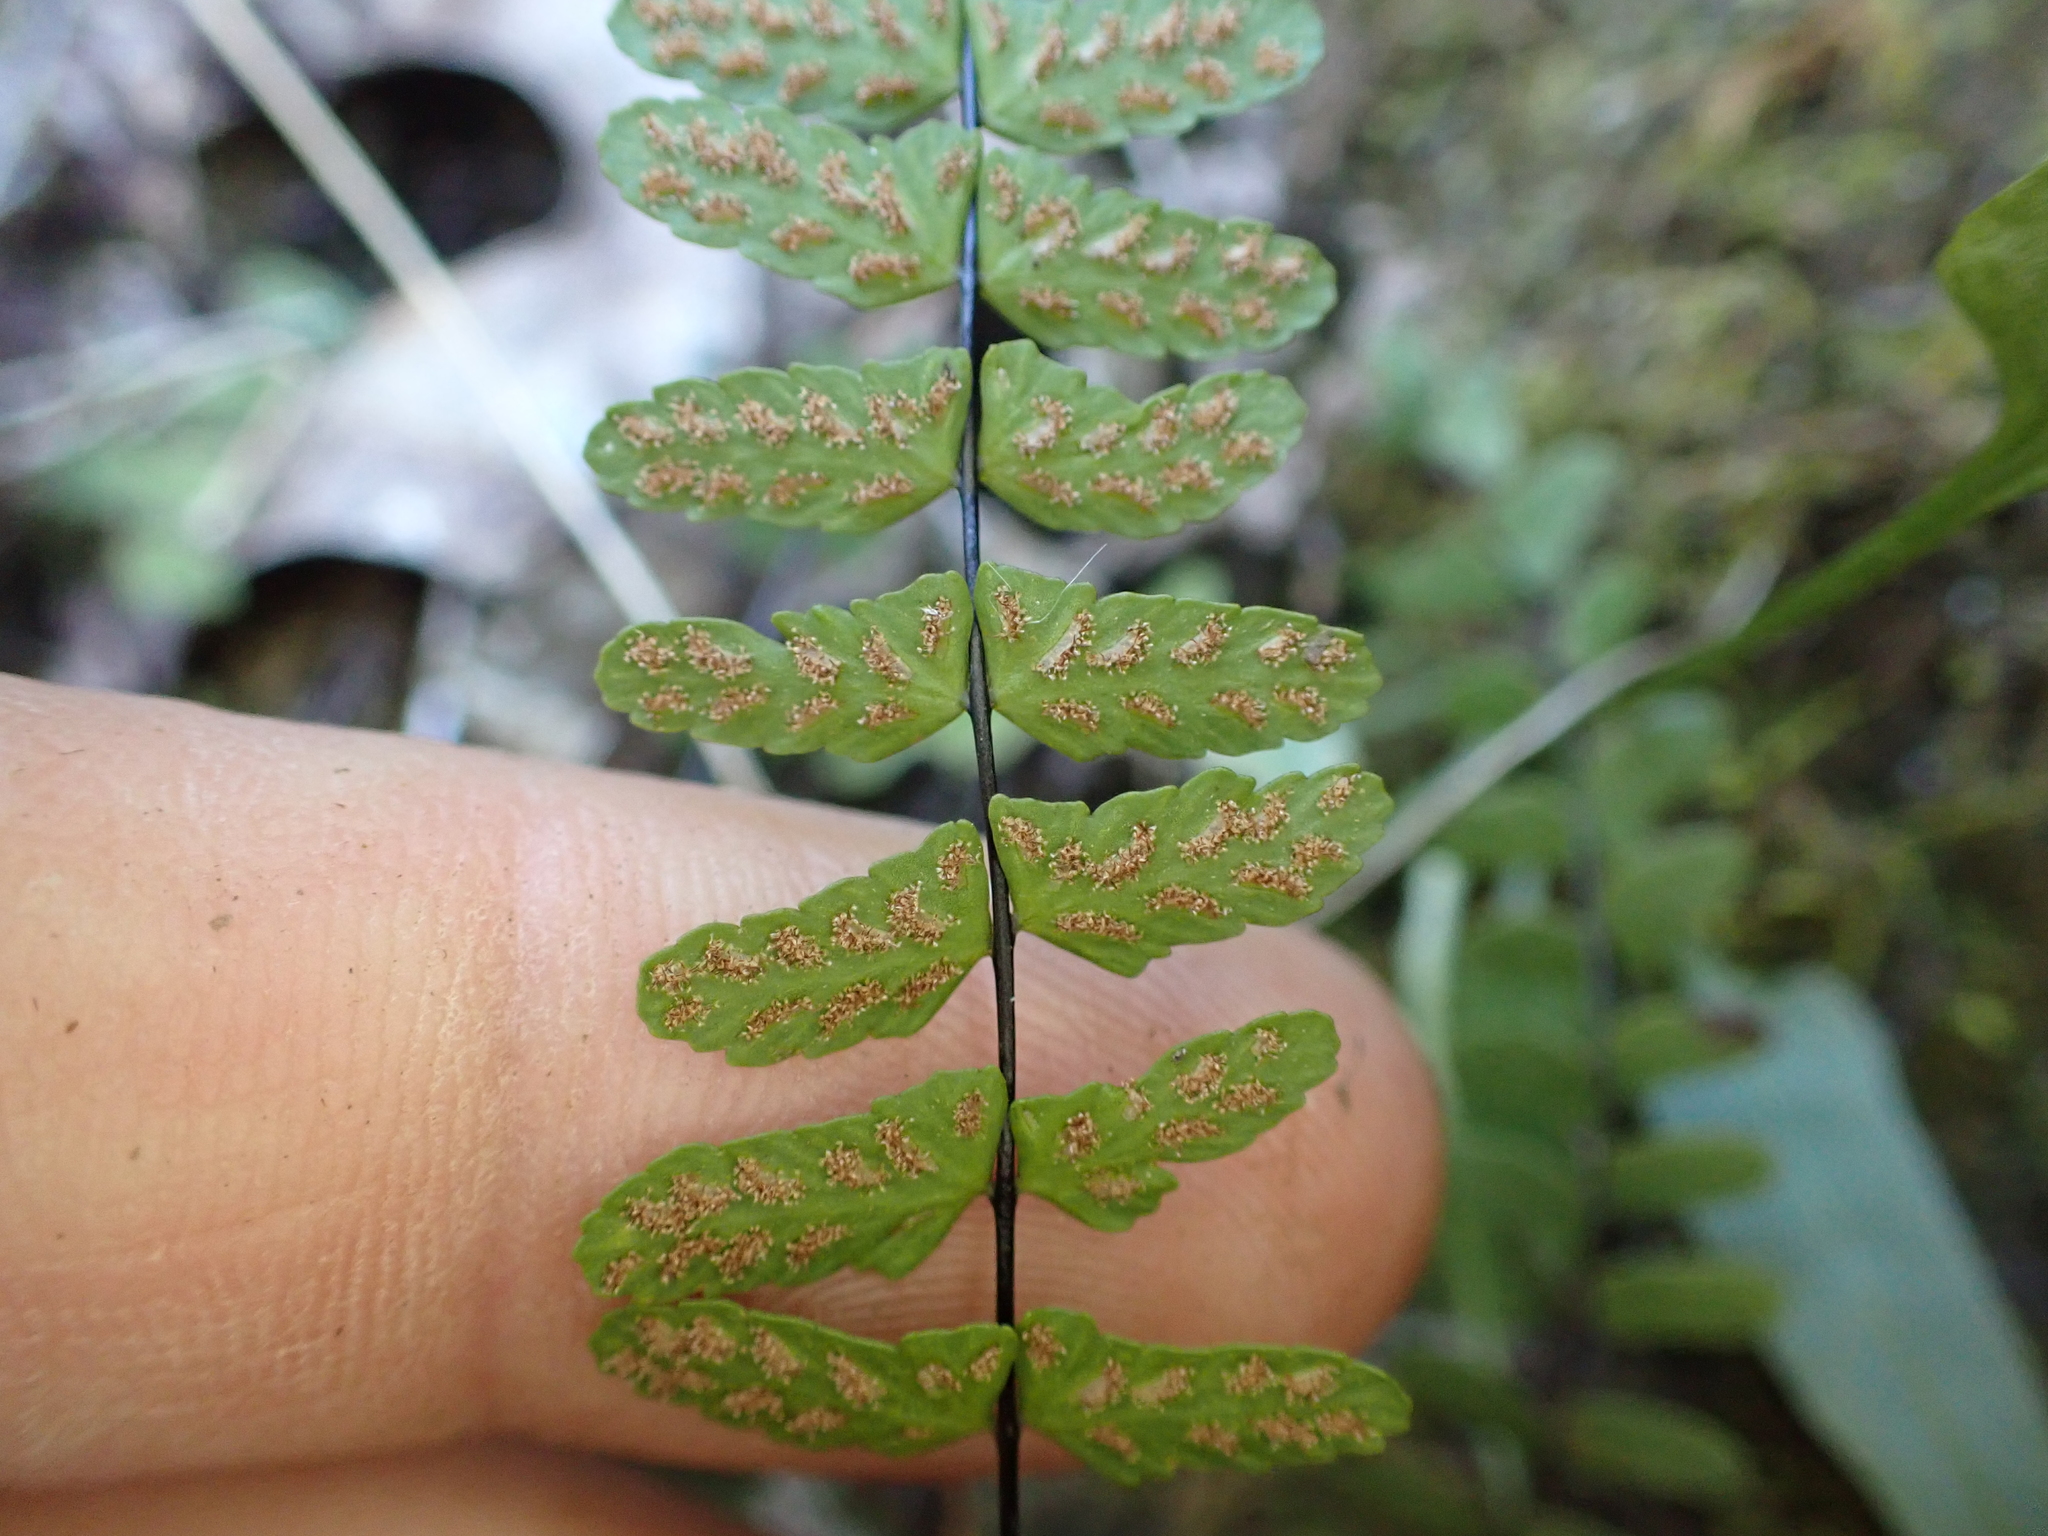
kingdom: Plantae
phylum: Tracheophyta
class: Polypodiopsida
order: Polypodiales
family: Aspleniaceae
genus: Asplenium
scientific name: Asplenium resiliens
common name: Blackstem spleenwort
